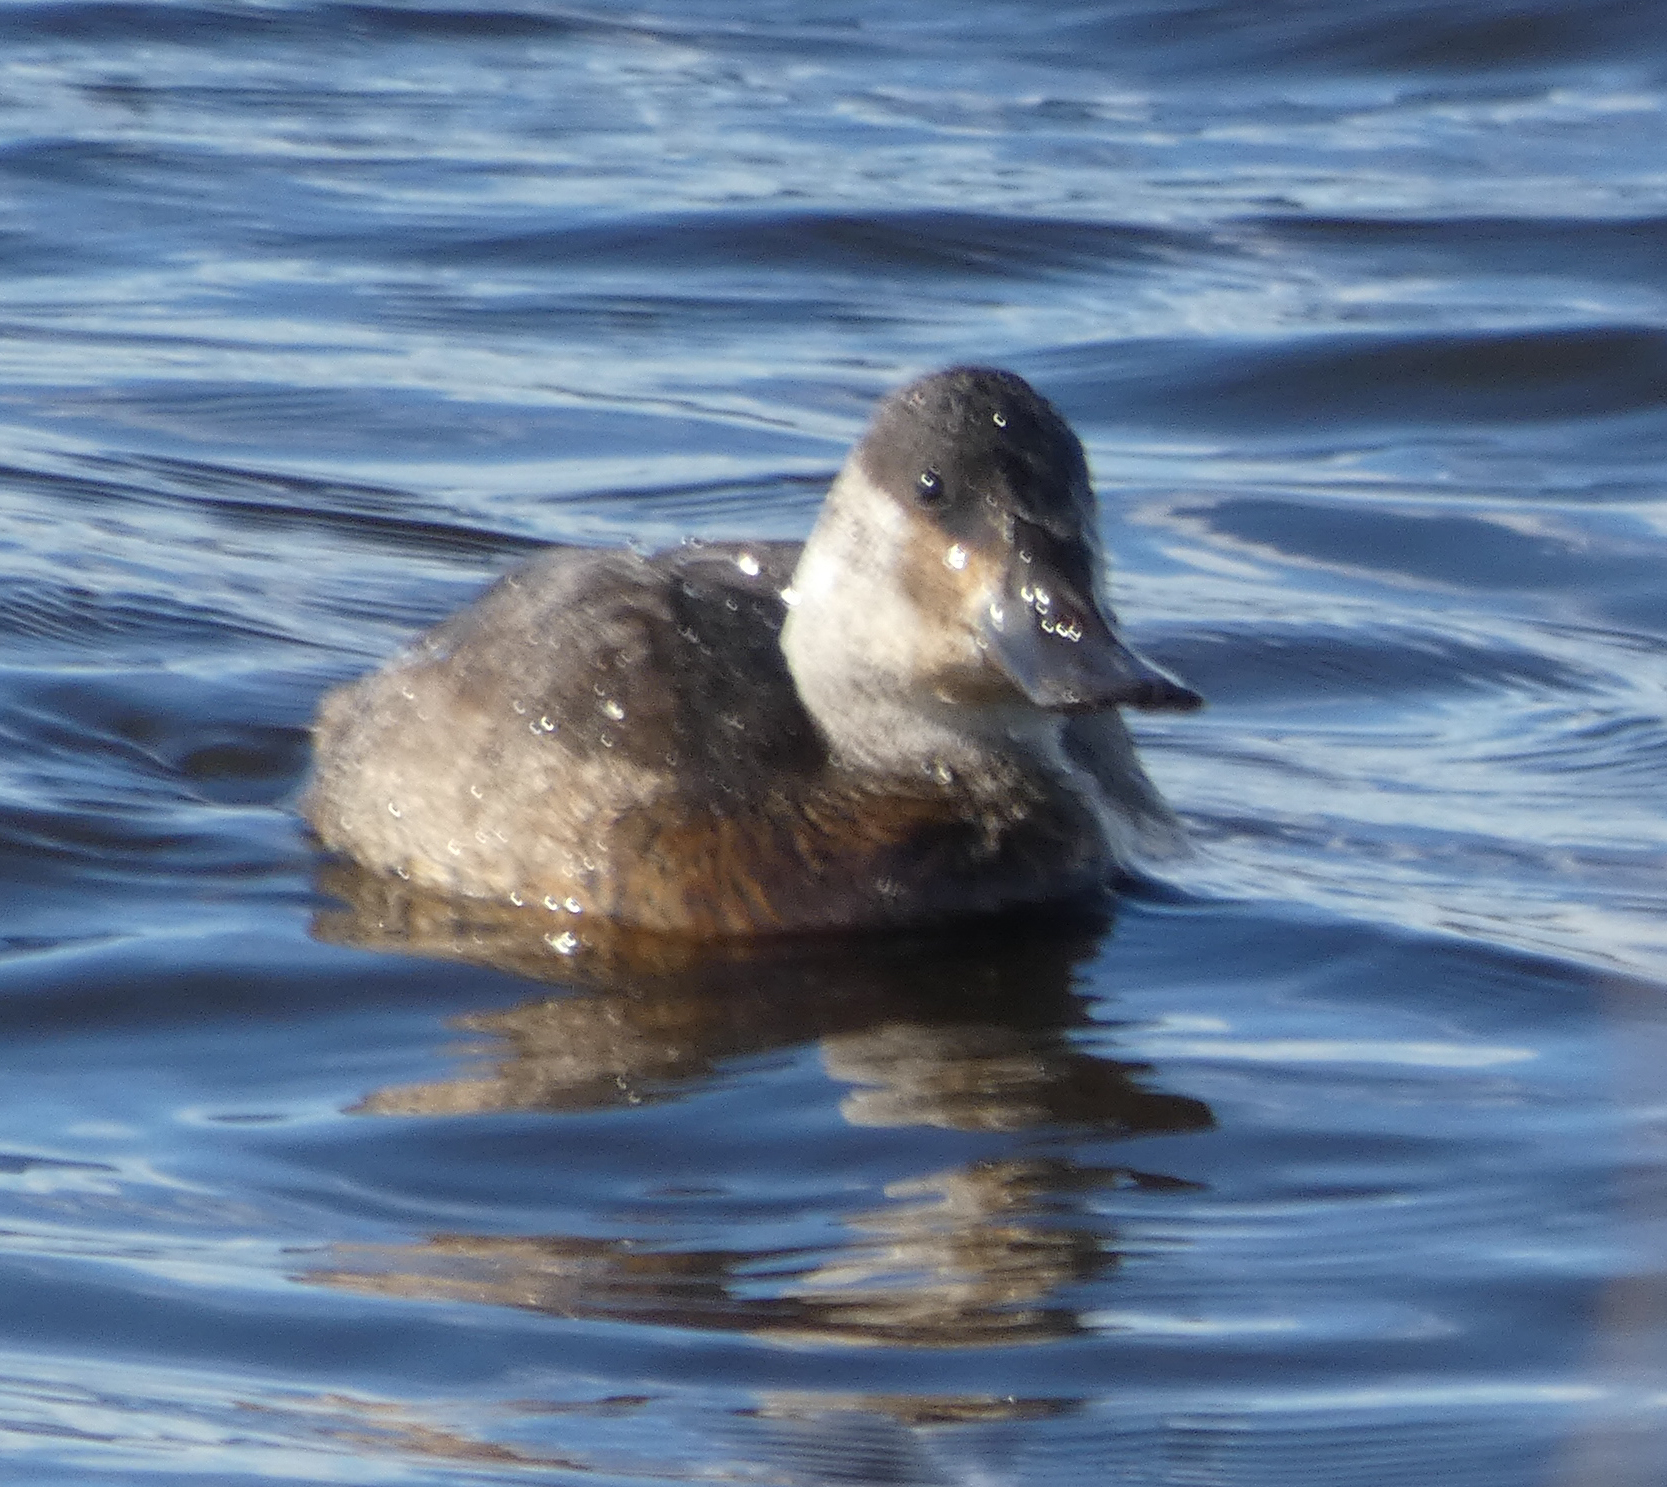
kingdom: Animalia
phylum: Chordata
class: Aves
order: Anseriformes
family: Anatidae
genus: Oxyura
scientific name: Oxyura jamaicensis
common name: Ruddy duck
